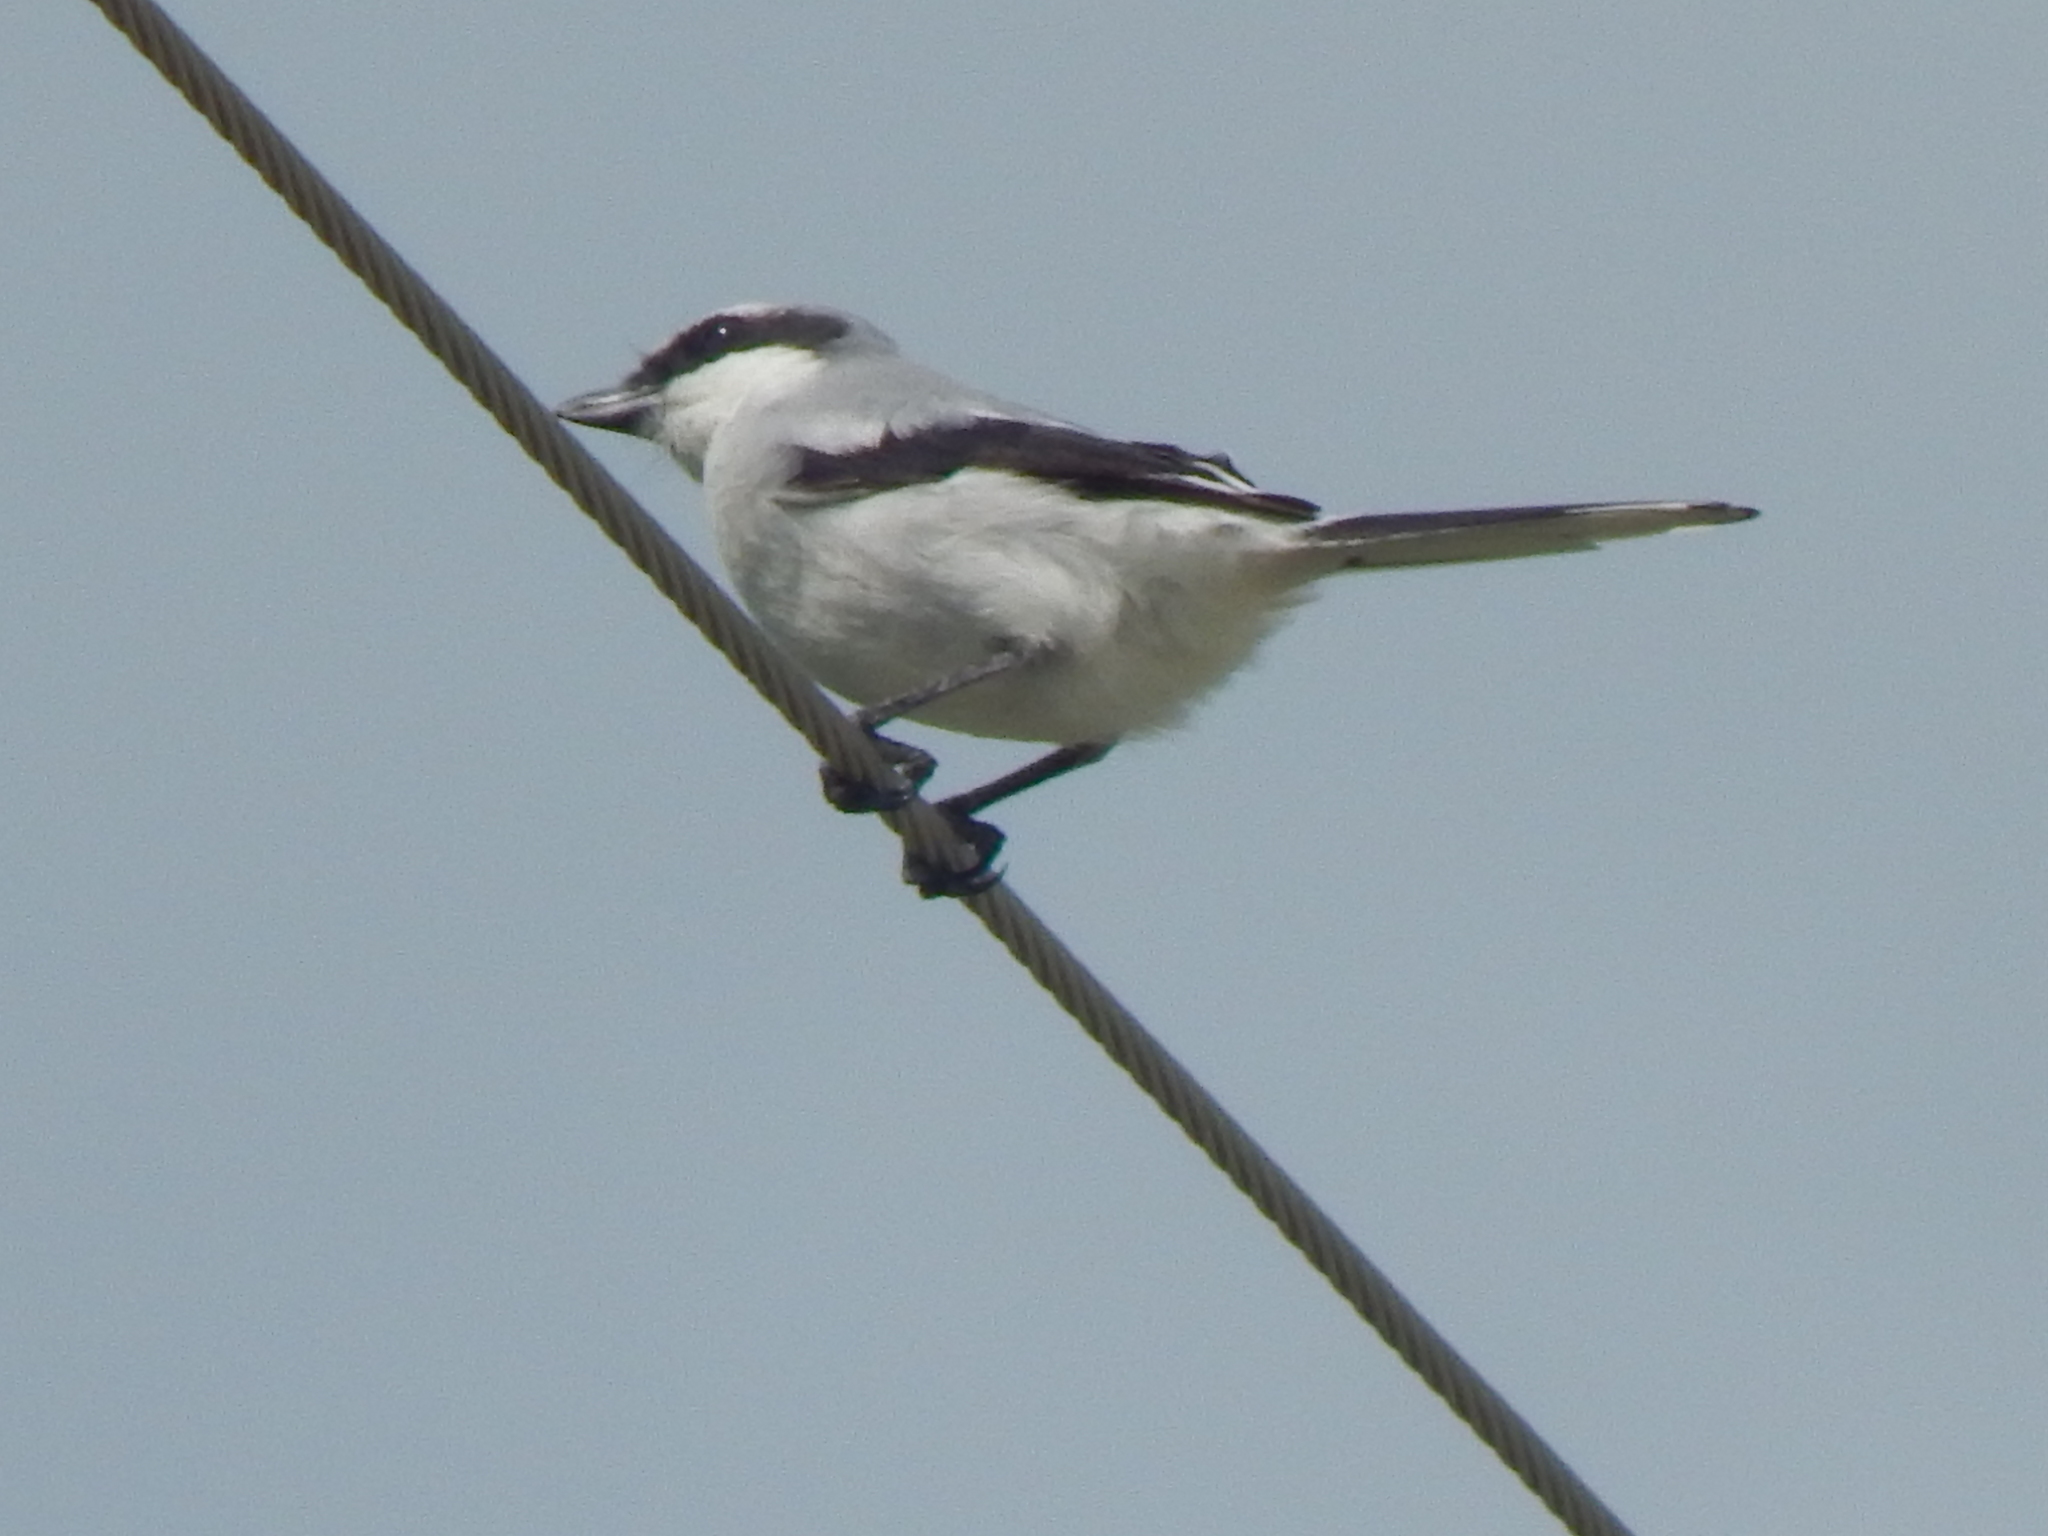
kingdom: Animalia
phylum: Chordata
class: Aves
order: Passeriformes
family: Laniidae
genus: Lanius
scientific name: Lanius ludovicianus
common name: Loggerhead shrike
